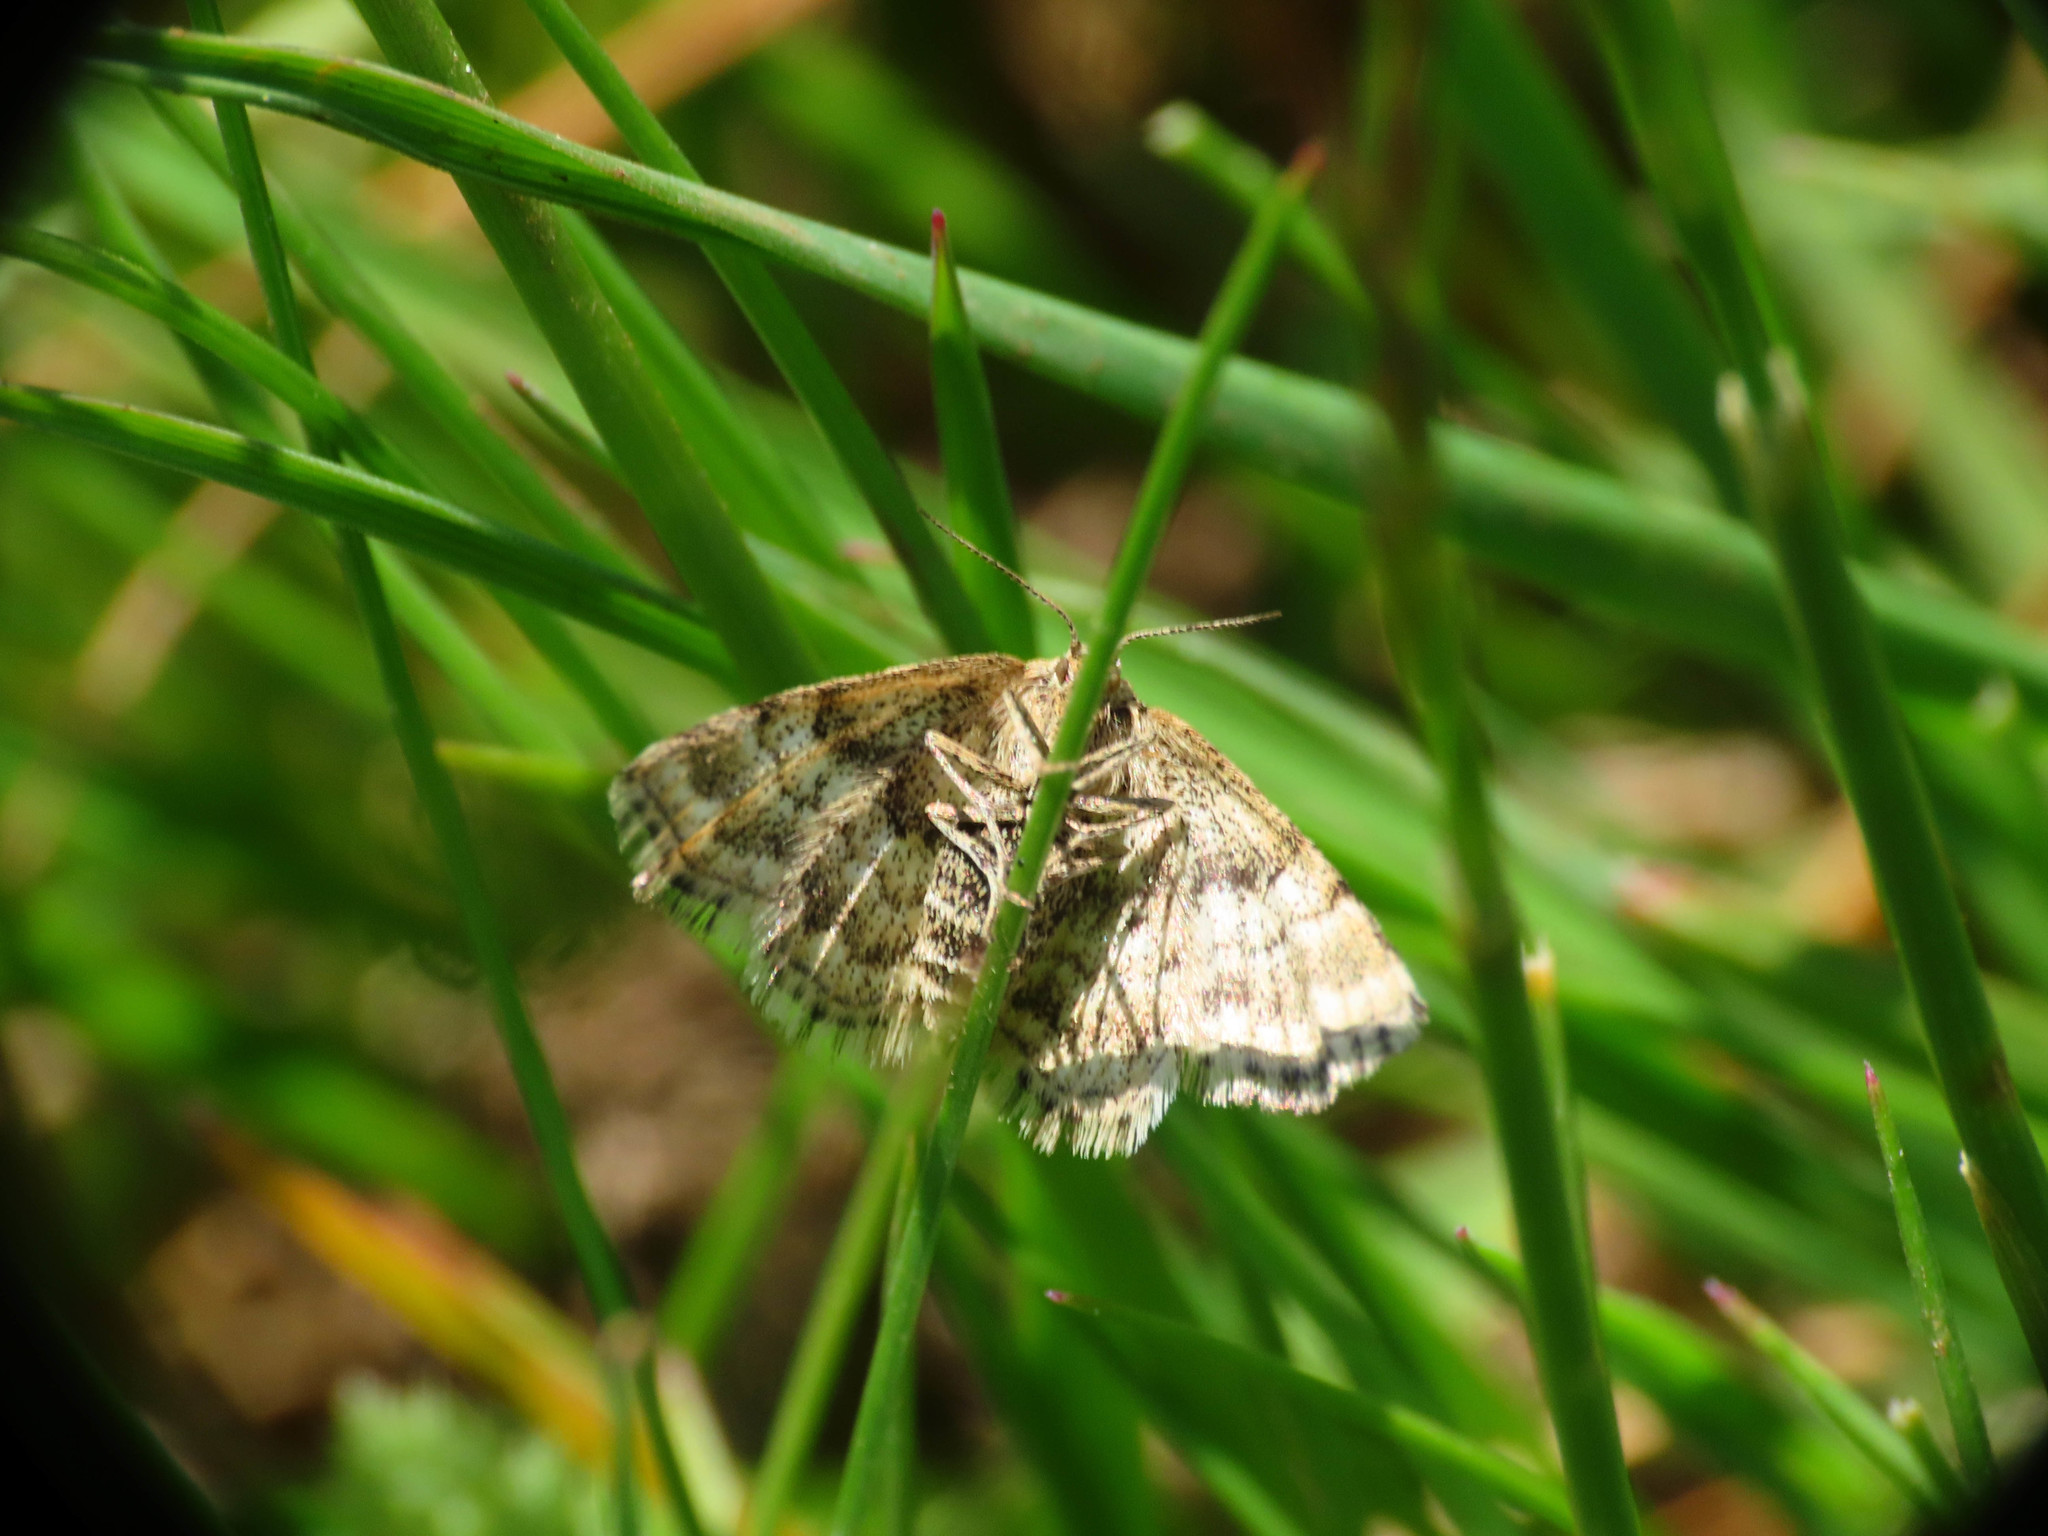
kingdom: Animalia
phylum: Arthropoda
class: Insecta
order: Lepidoptera
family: Geometridae
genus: Emmiltis
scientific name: Emmiltis pygmaearia
